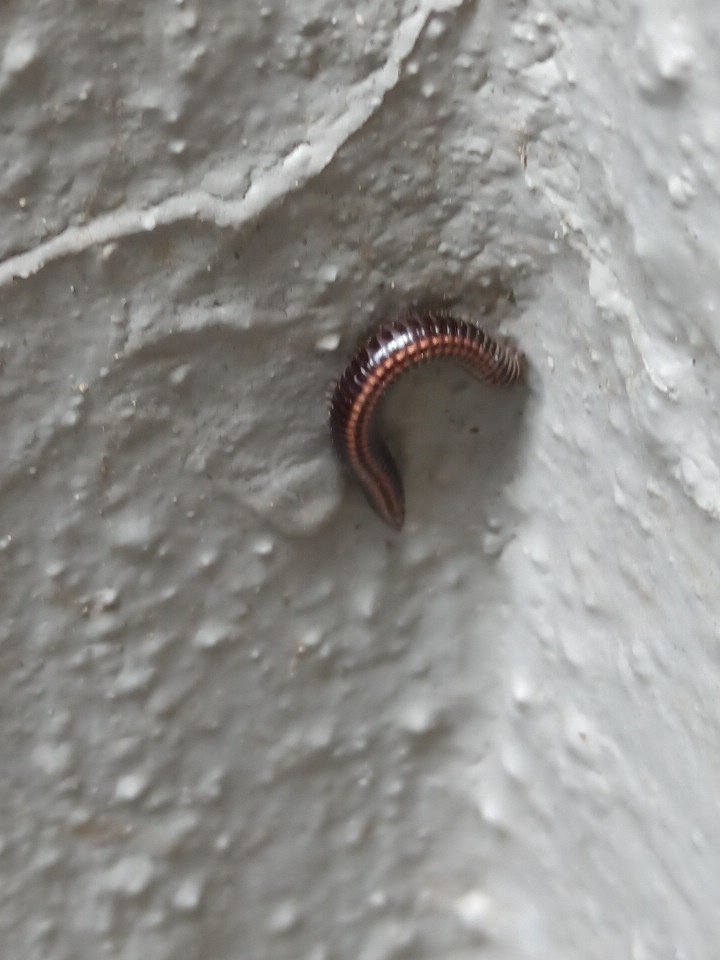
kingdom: Animalia
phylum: Arthropoda
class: Diplopoda
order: Julida
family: Julidae
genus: Ommatoiulus
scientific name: Ommatoiulus sabulosus
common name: Striped millipede
